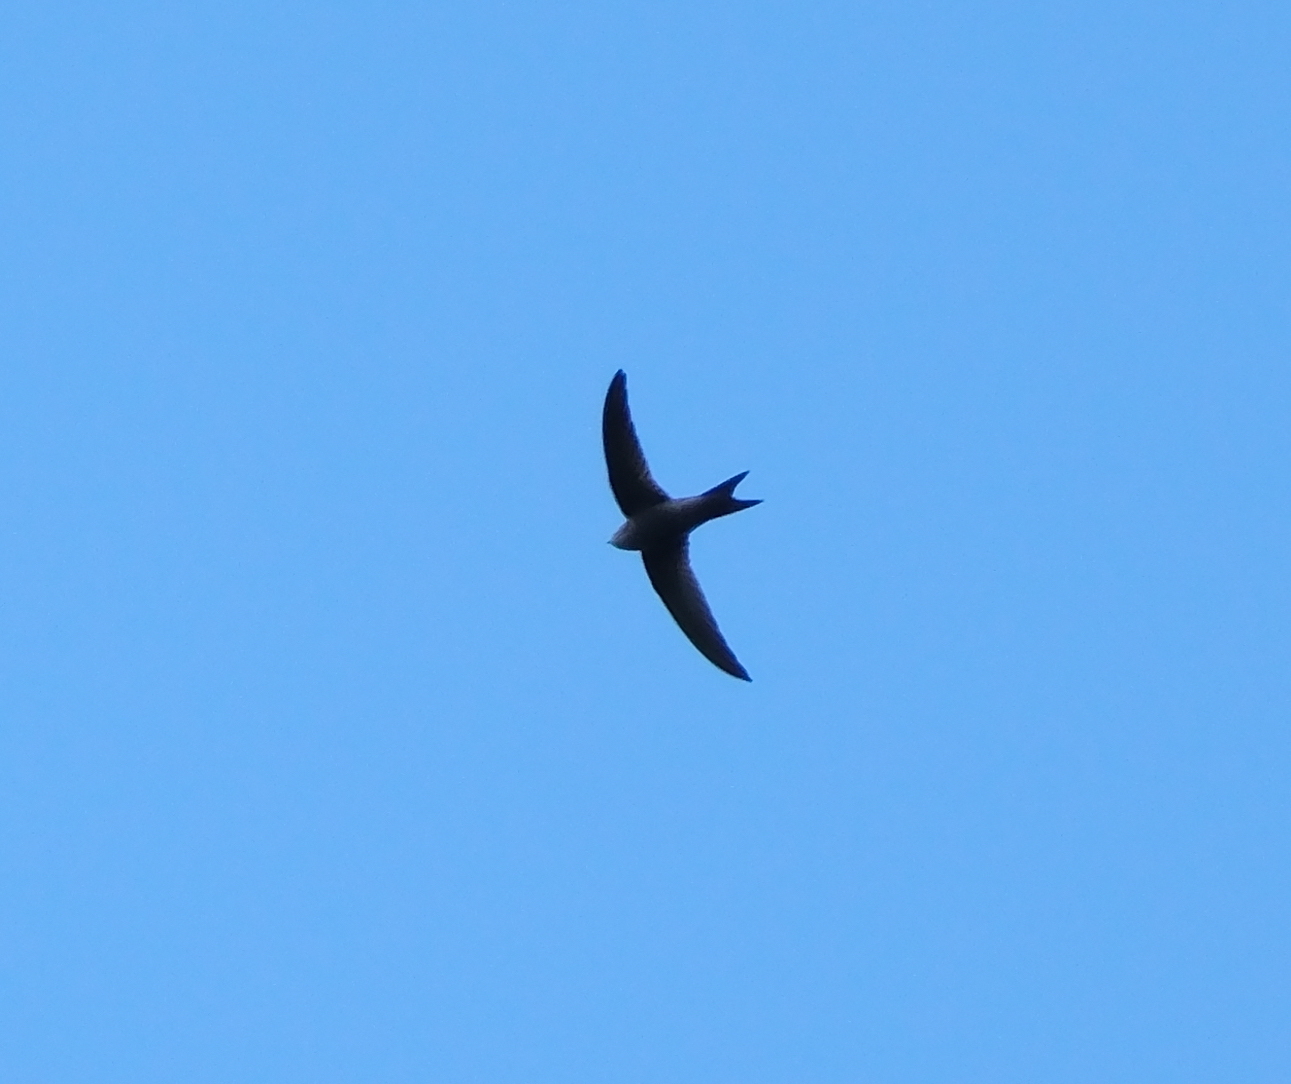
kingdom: Animalia
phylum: Chordata
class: Aves
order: Apodiformes
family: Apodidae
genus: Apus
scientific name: Apus unicolor
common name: Plain swift
